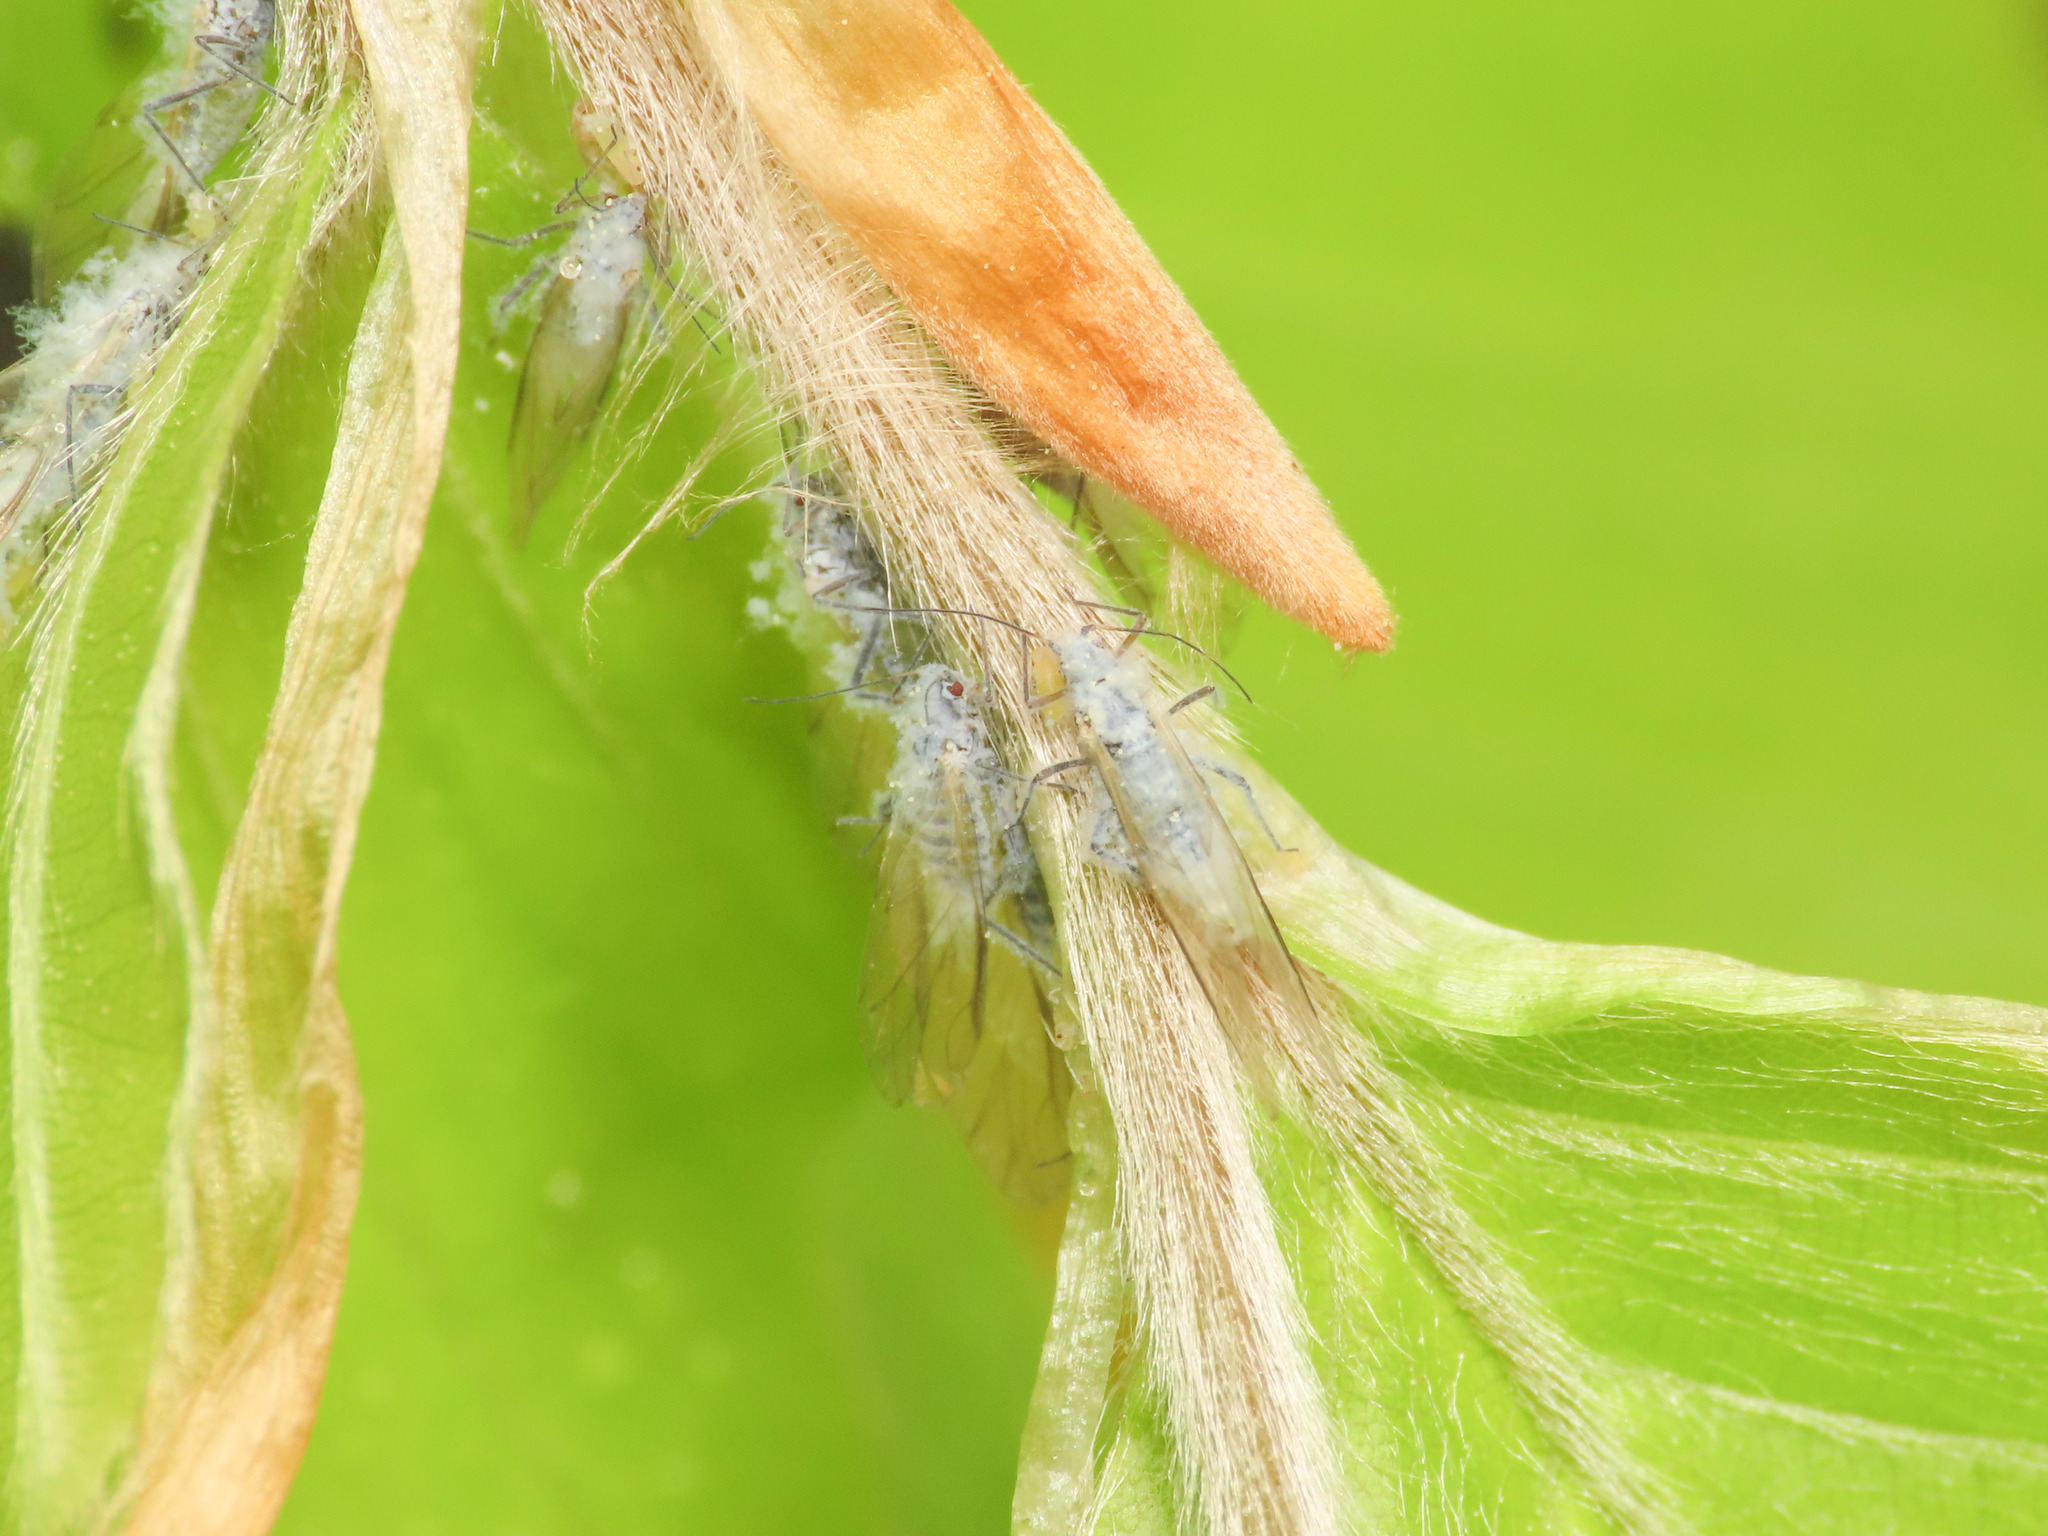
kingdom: Animalia
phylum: Arthropoda
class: Insecta
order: Hemiptera
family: Aphididae
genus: Phyllaphis
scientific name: Phyllaphis fagi
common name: Beech aphid
